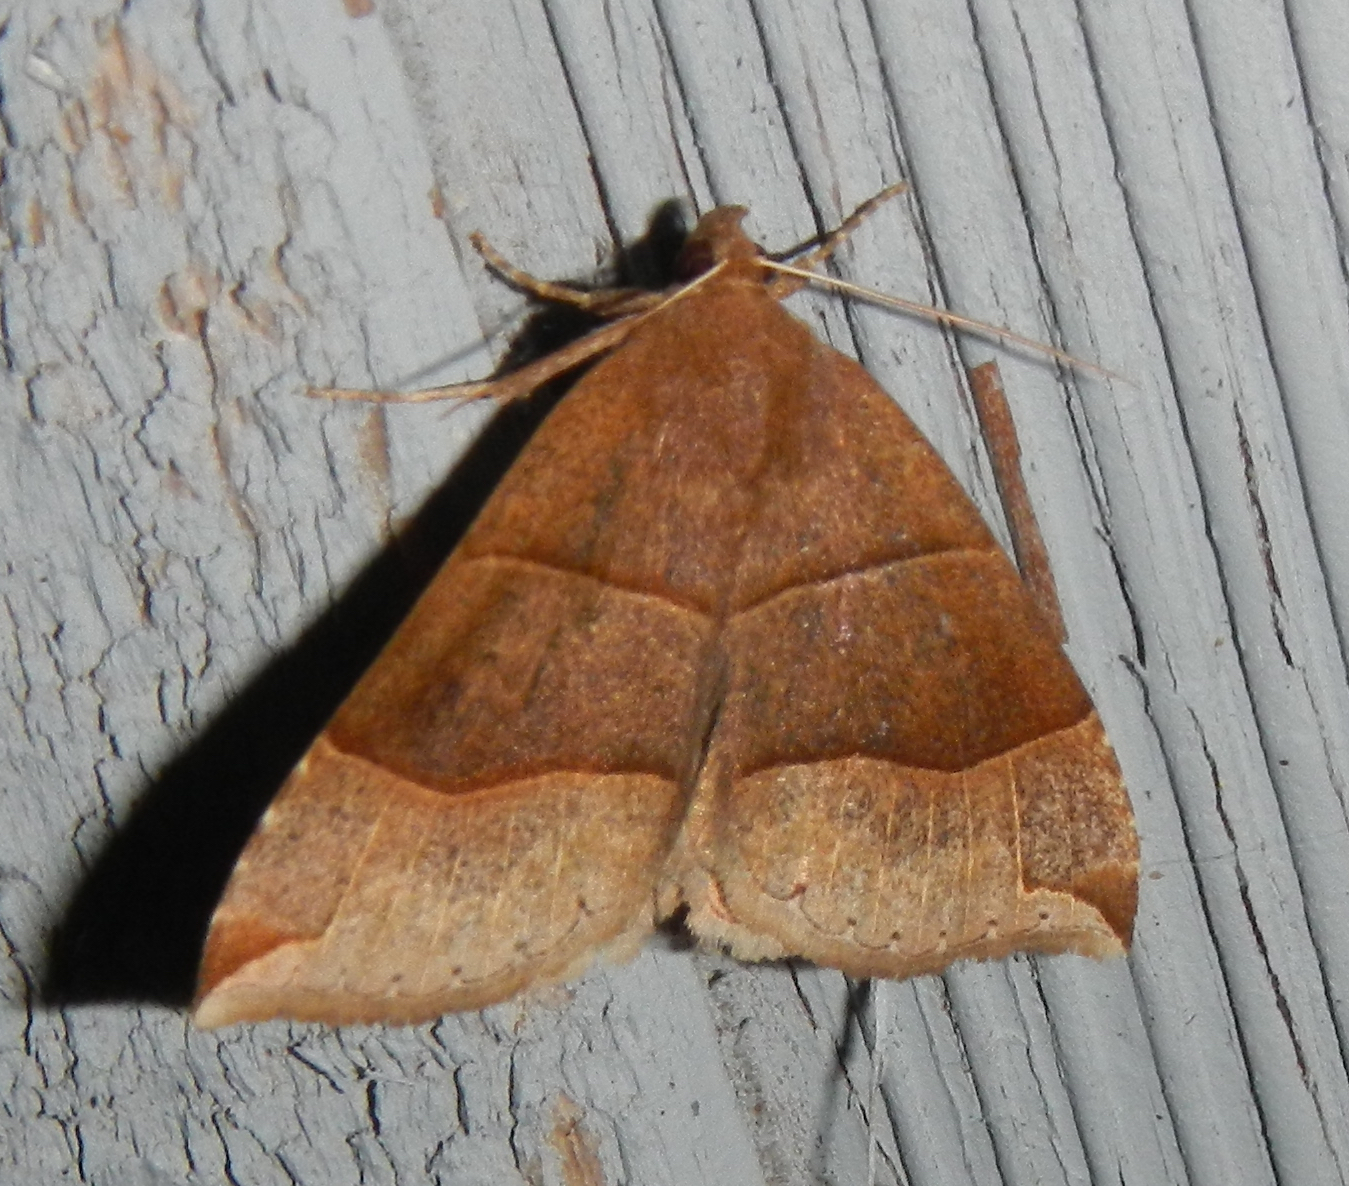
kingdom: Animalia
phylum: Arthropoda
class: Insecta
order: Lepidoptera
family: Erebidae
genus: Parallelia
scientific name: Parallelia bistriaris
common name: Maple looper moth
